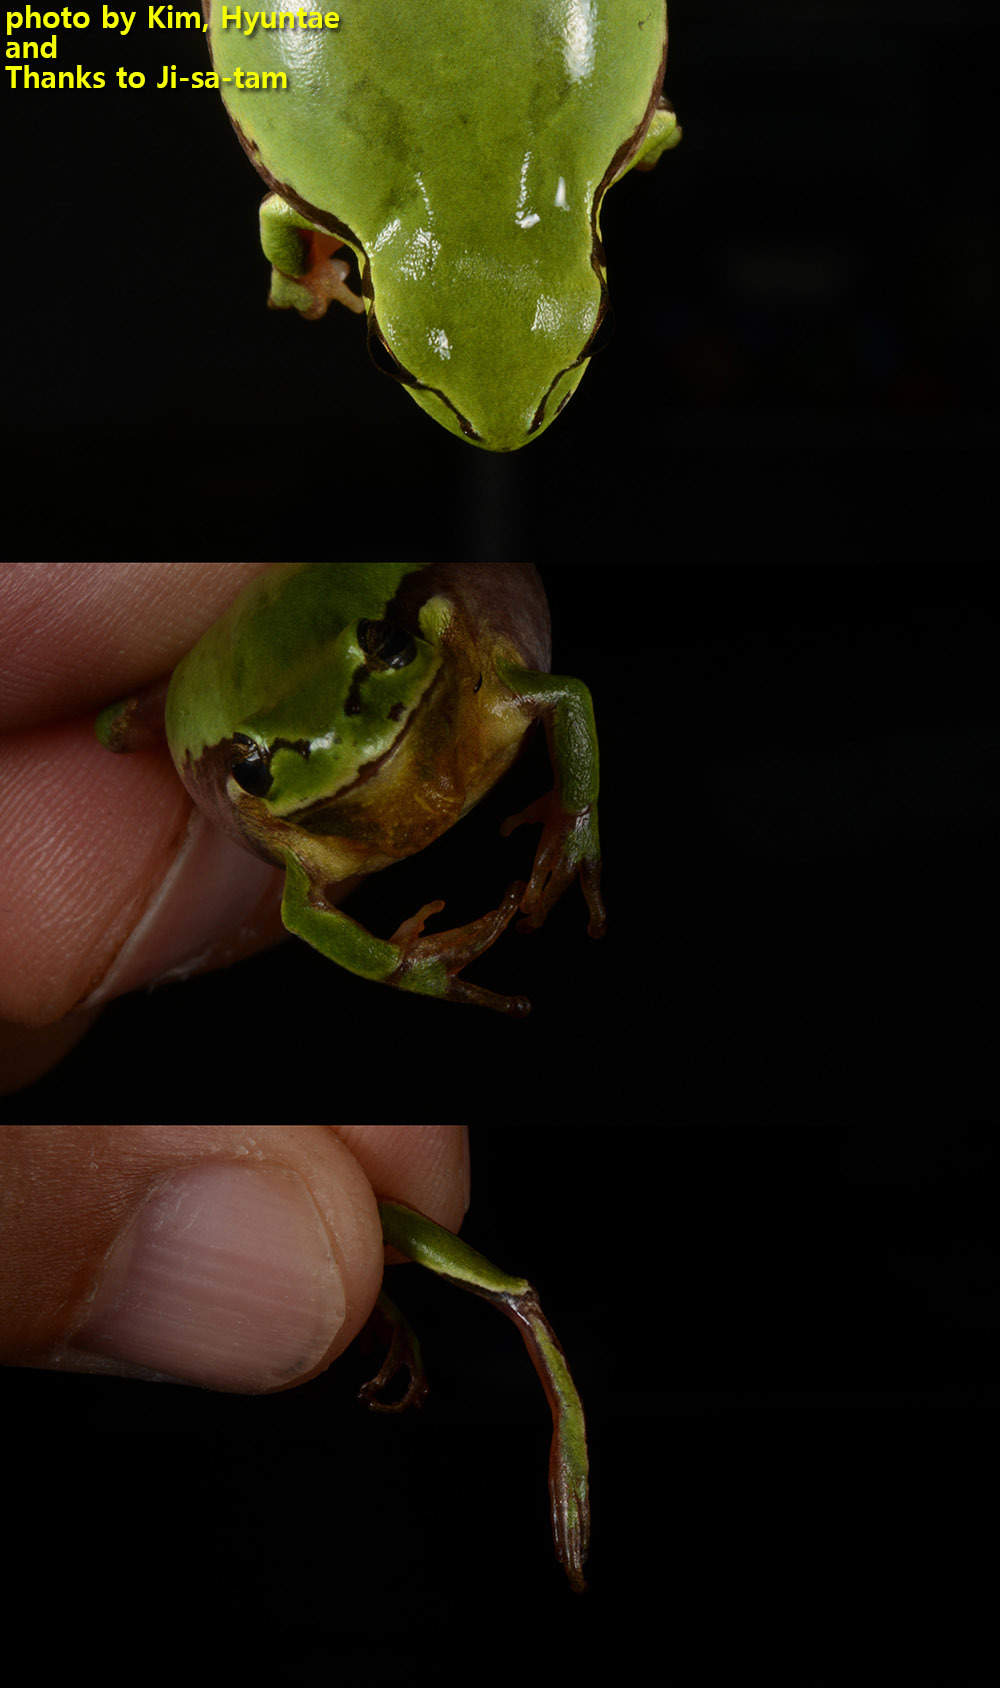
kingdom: Animalia
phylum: Chordata
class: Amphibia
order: Anura
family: Hylidae
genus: Dryophytes
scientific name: Dryophytes immaculatus
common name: North china treefrog
